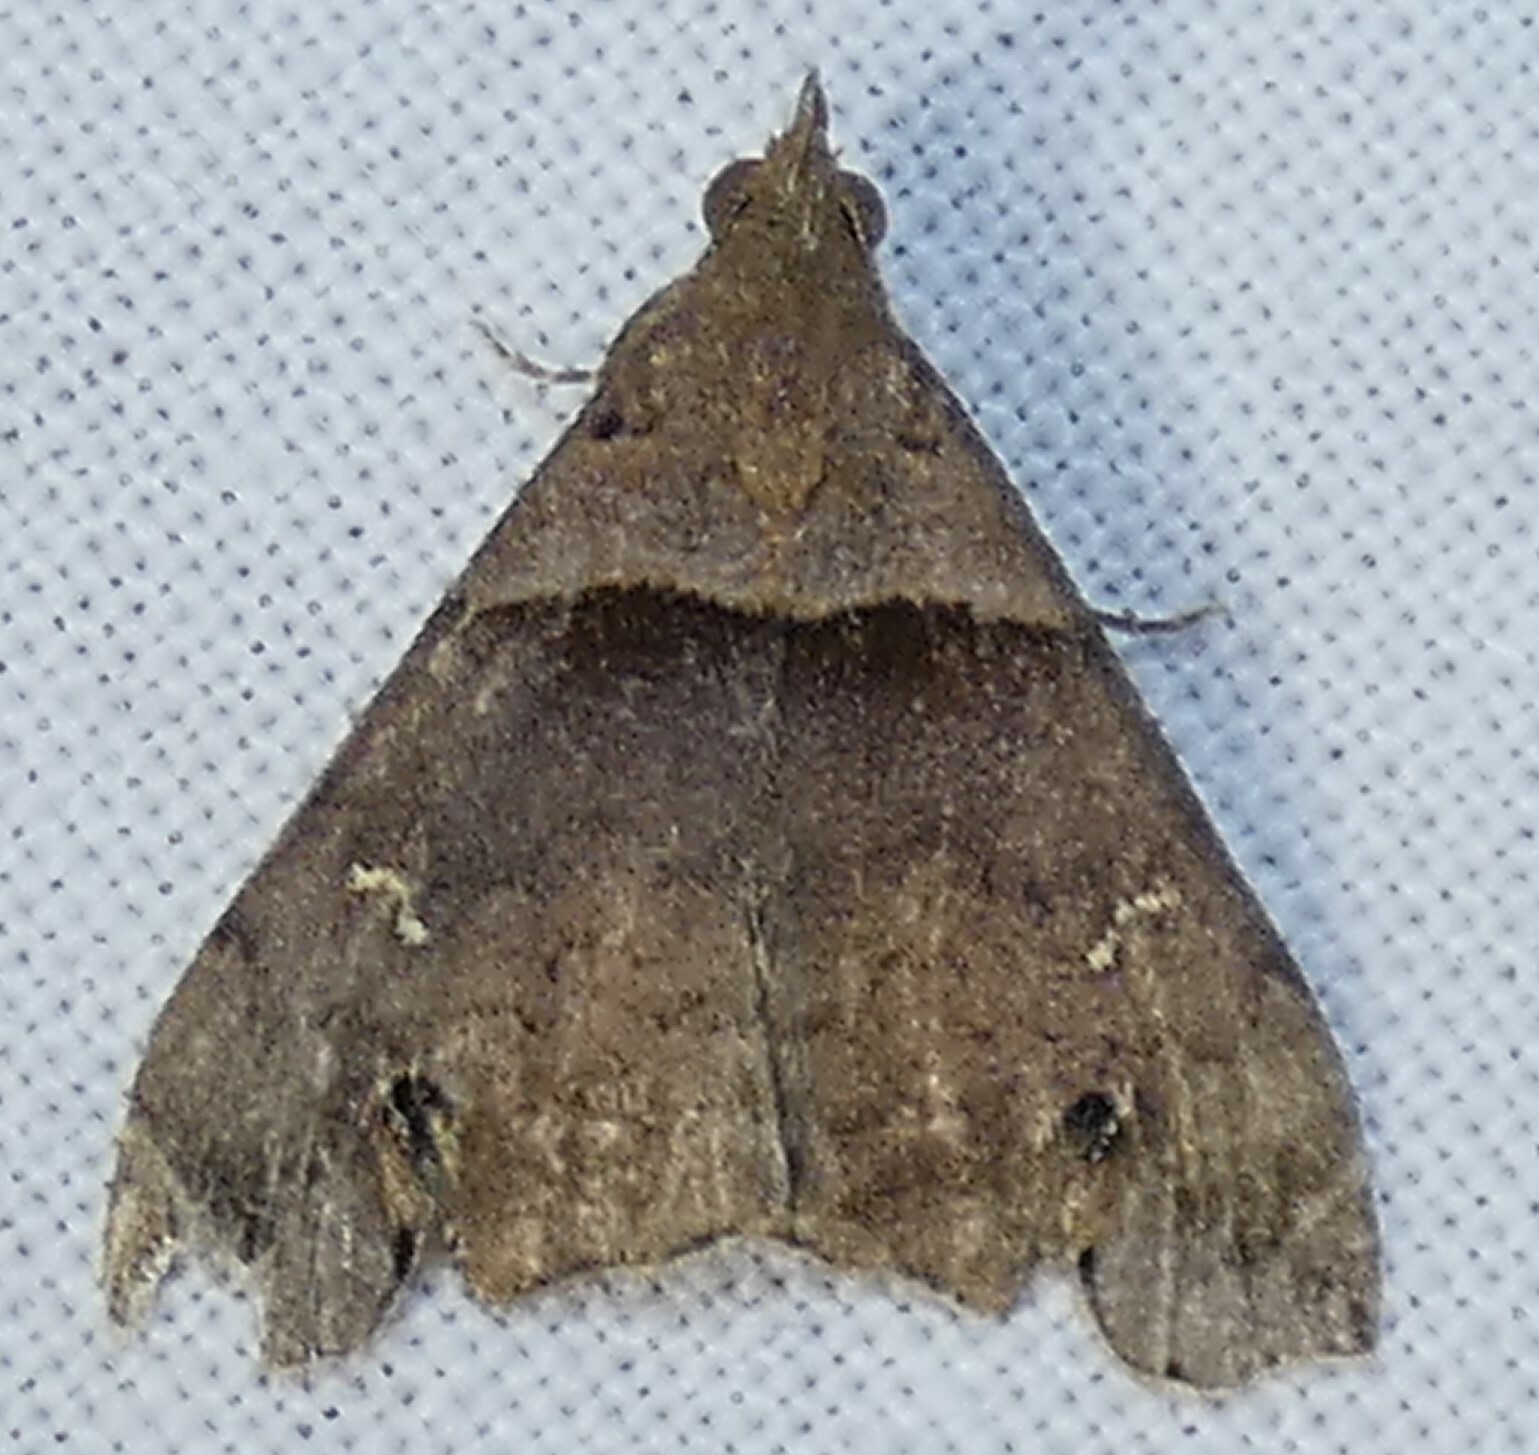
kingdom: Animalia
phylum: Arthropoda
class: Insecta
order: Lepidoptera
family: Erebidae
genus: Lascoria
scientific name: Lascoria ambigualis
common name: Ambiguous moth
